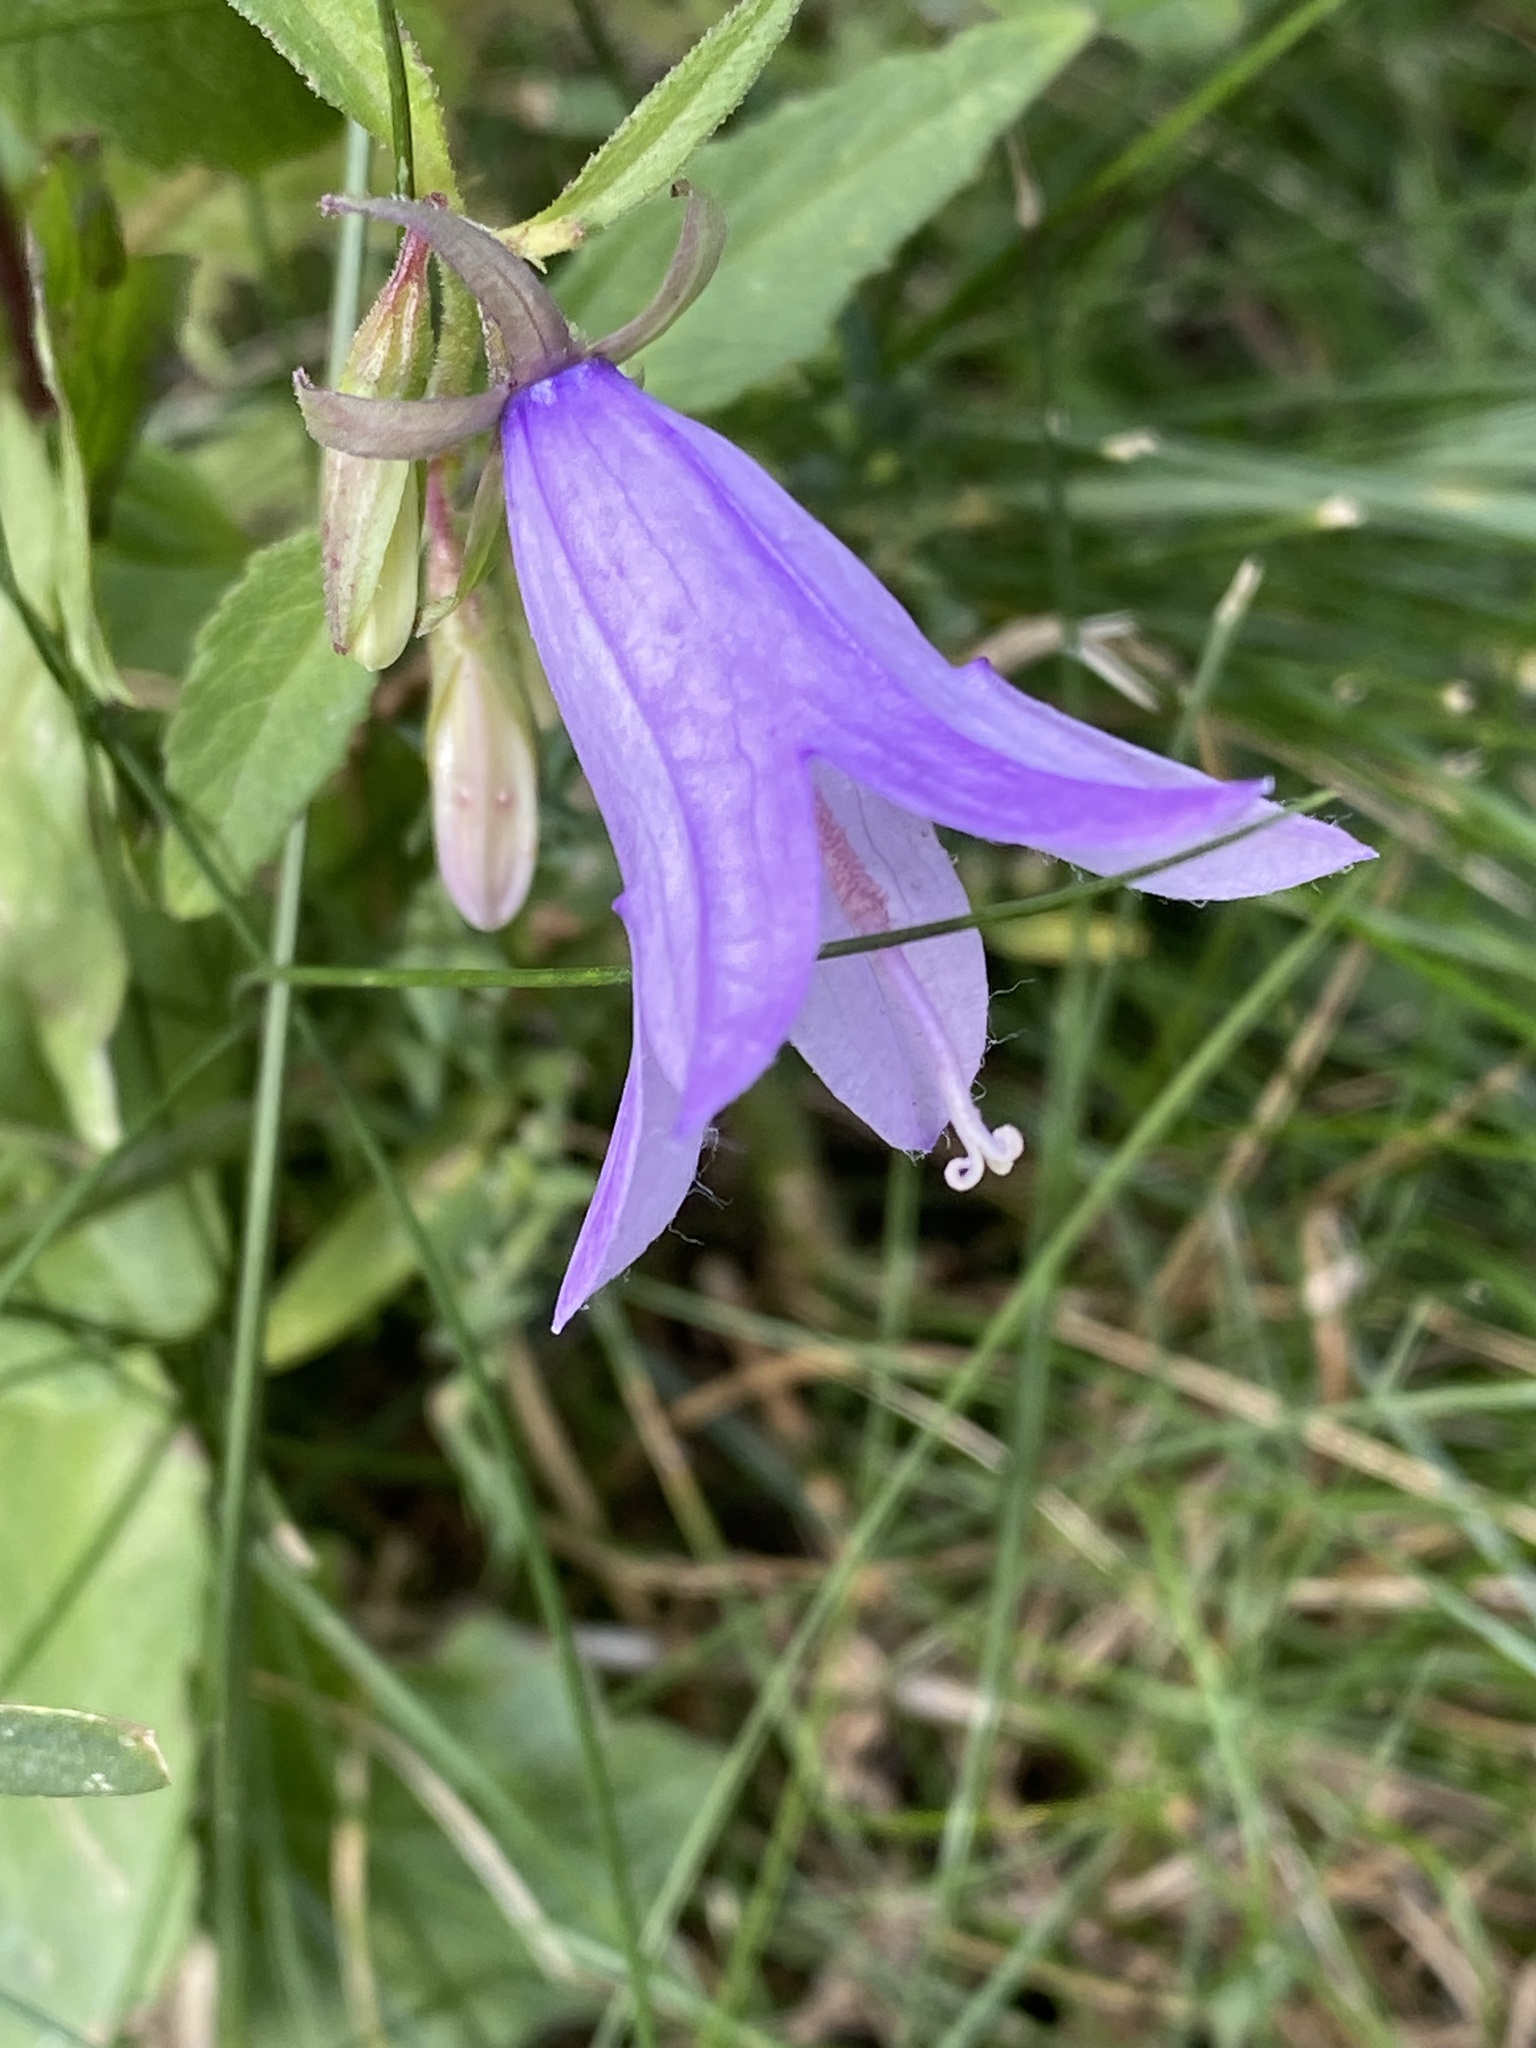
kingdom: Plantae
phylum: Tracheophyta
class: Magnoliopsida
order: Asterales
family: Campanulaceae
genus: Campanula
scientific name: Campanula rapunculoides
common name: Creeping bellflower
